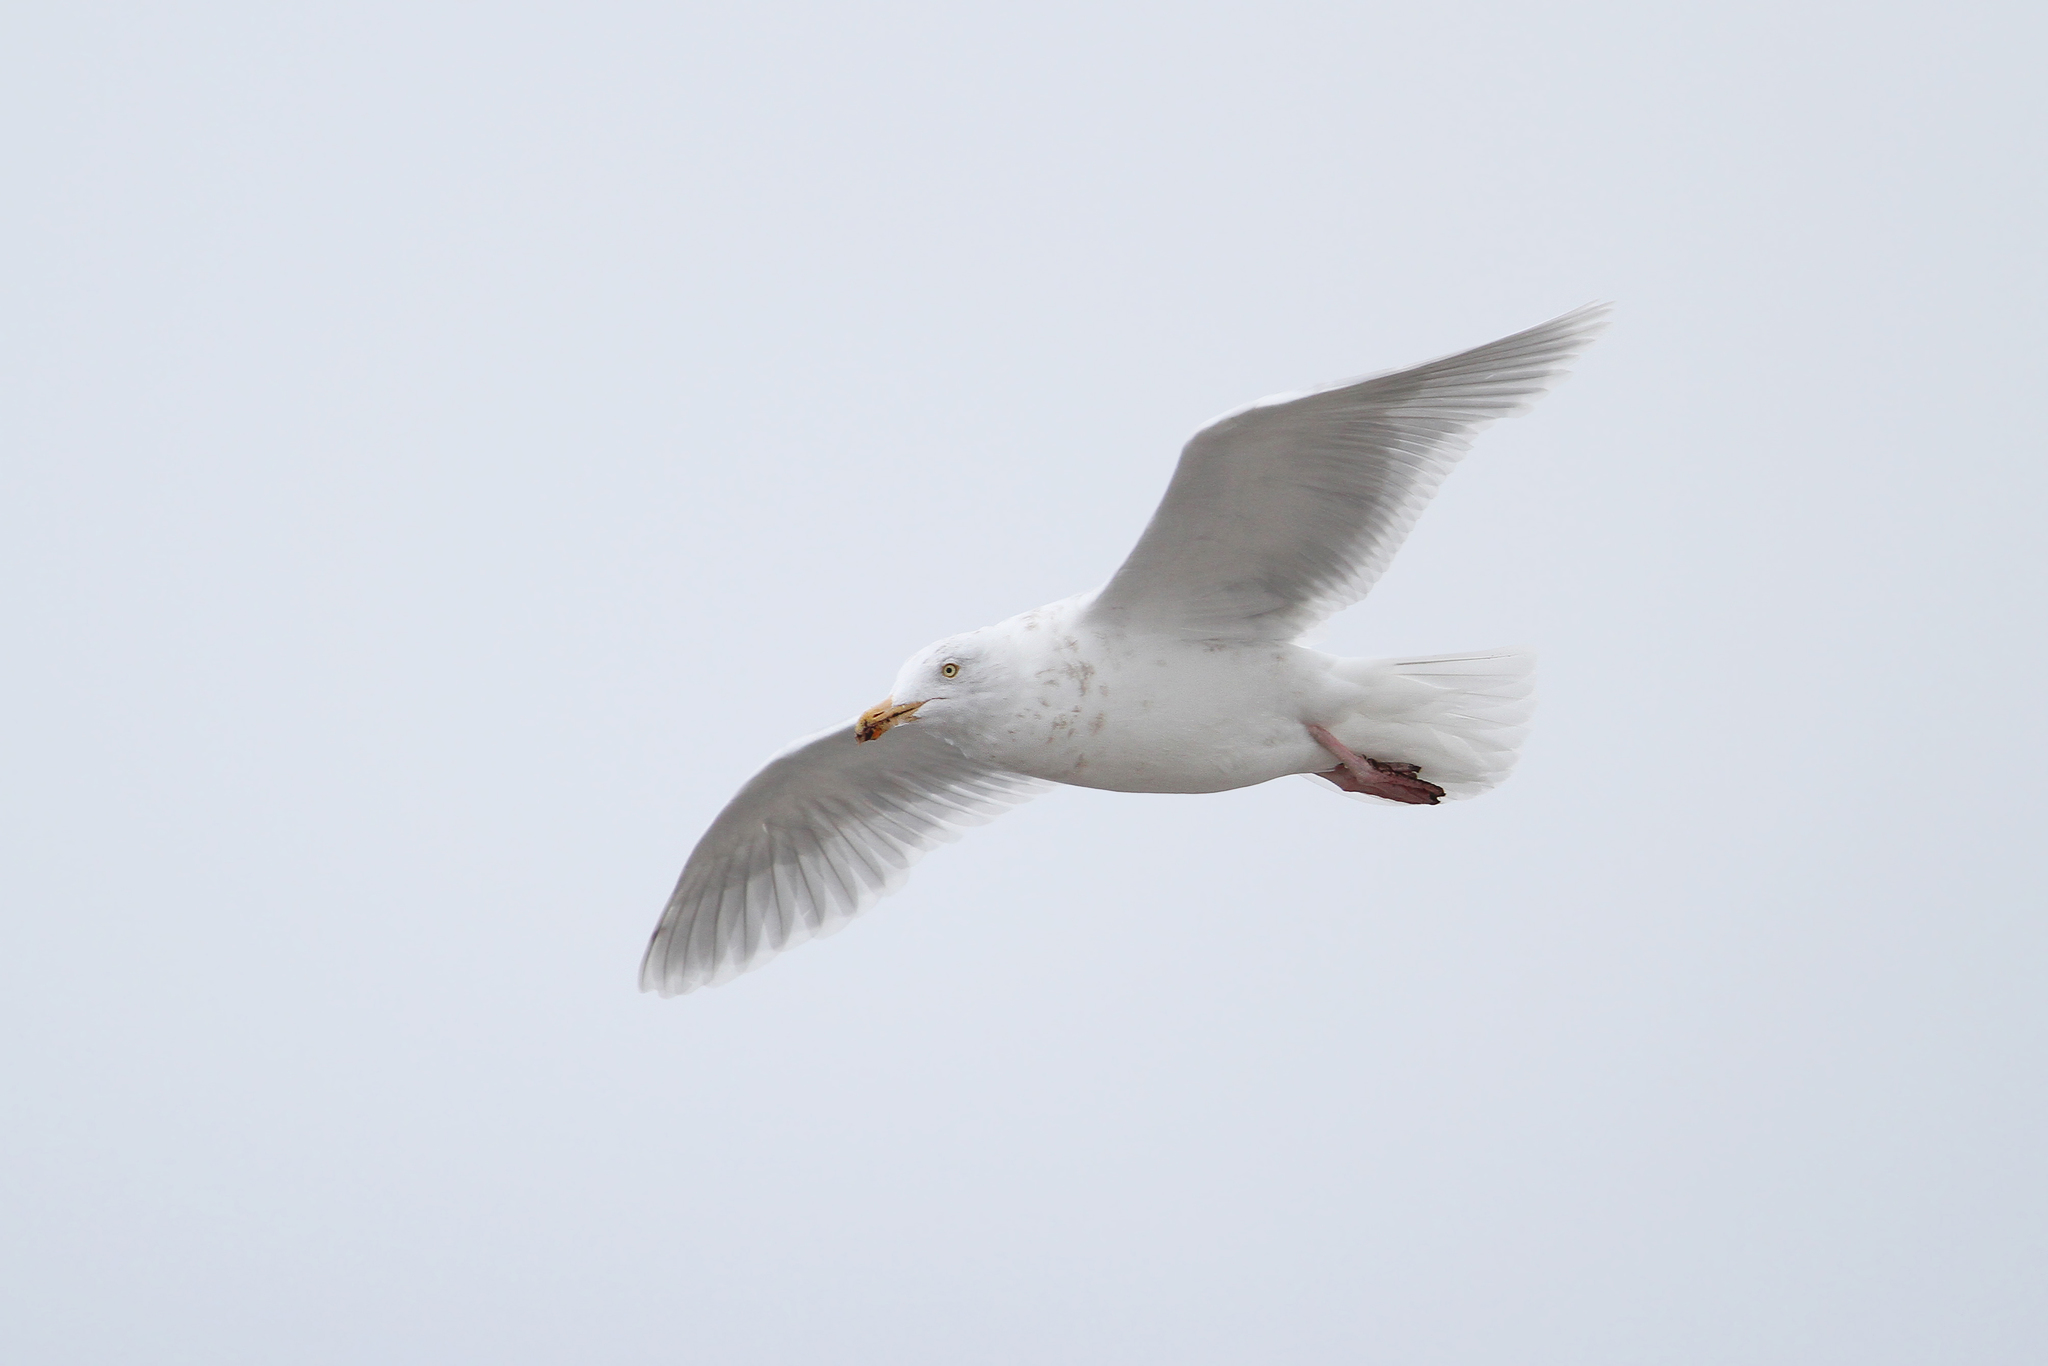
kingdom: Animalia
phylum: Chordata
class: Aves
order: Charadriiformes
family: Laridae
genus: Larus
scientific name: Larus hyperboreus
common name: Glaucous gull
